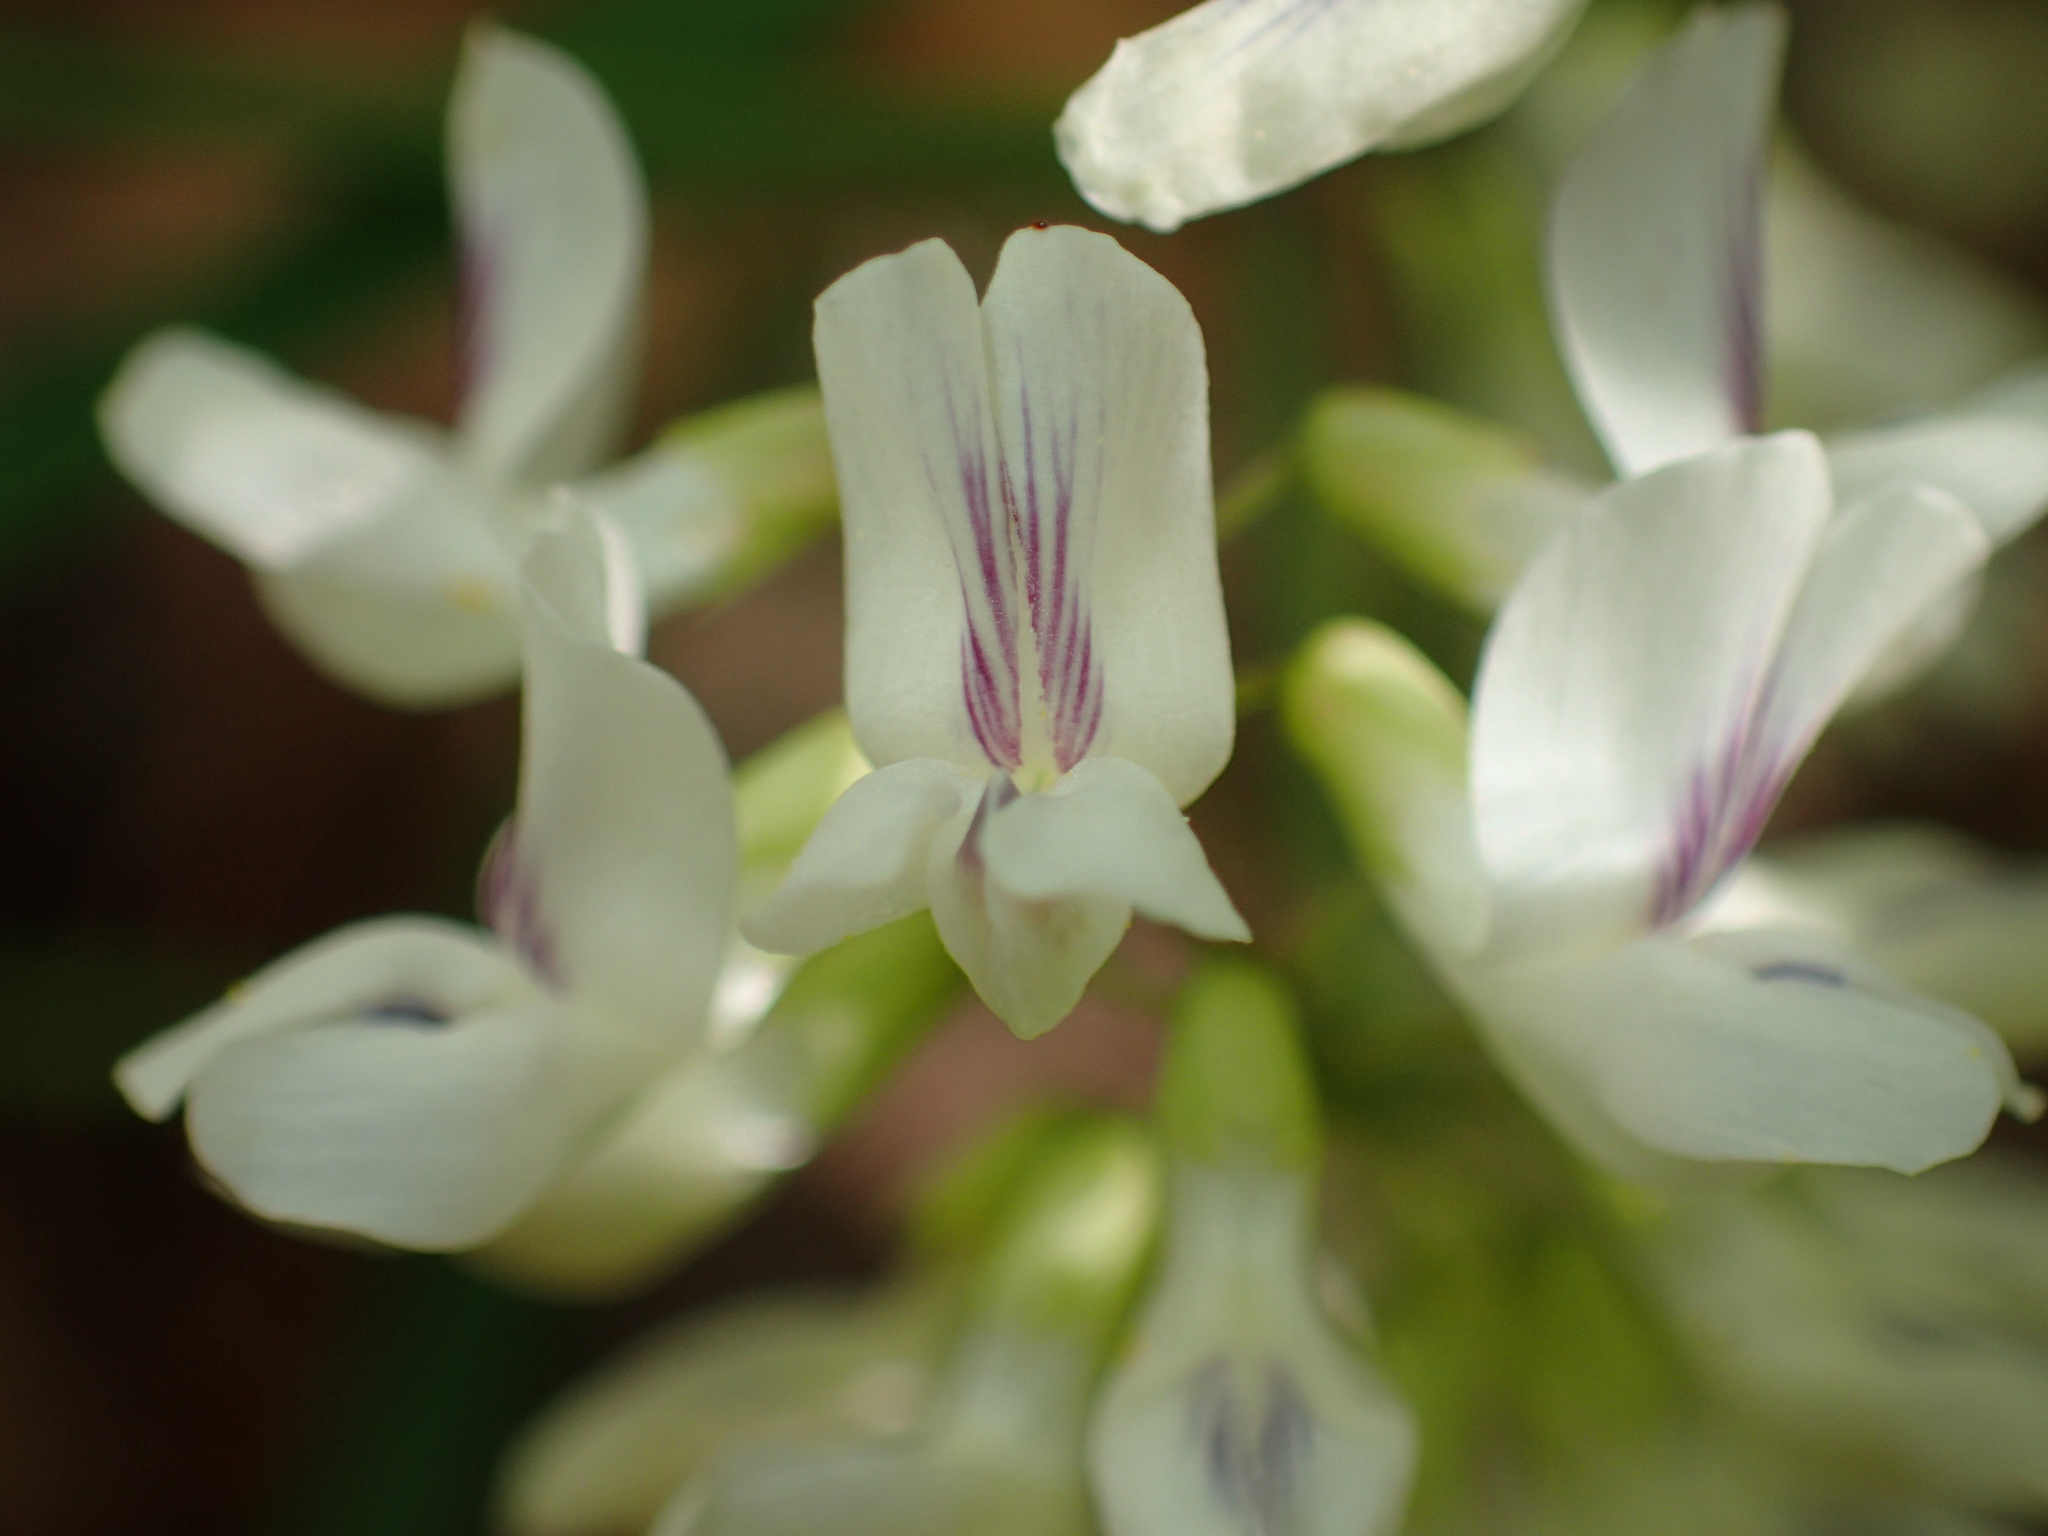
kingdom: Plantae
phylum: Tracheophyta
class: Magnoliopsida
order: Fabales
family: Fabaceae
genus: Vicia
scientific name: Vicia caroliniana
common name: Carolina vetch
